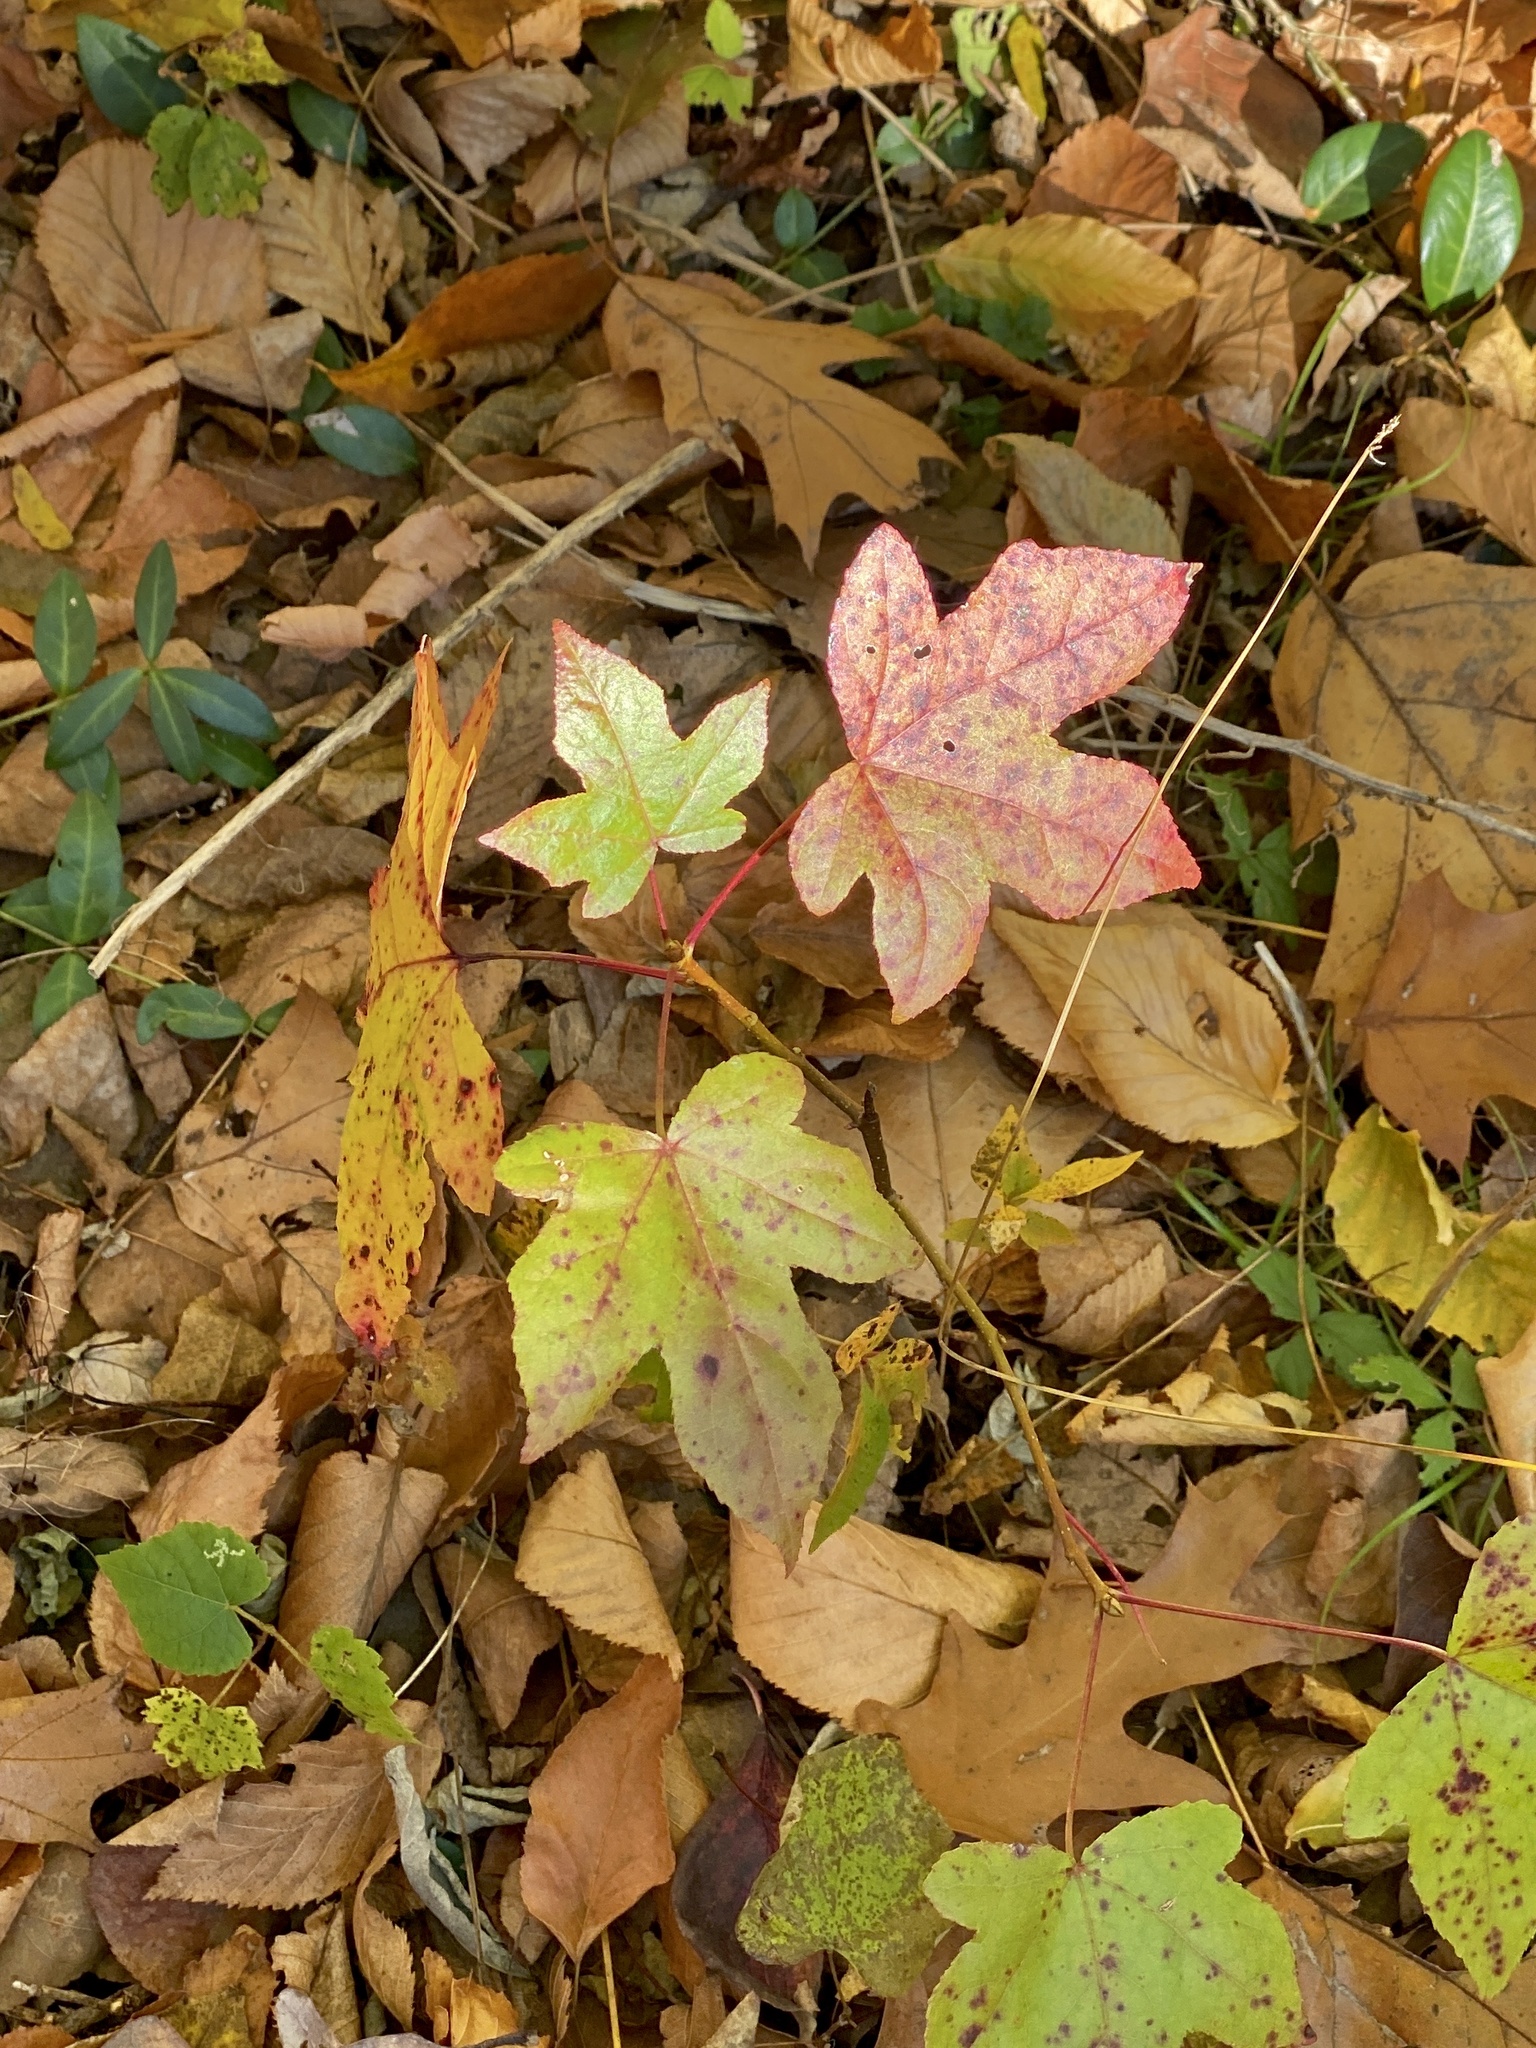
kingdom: Plantae
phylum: Tracheophyta
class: Magnoliopsida
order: Saxifragales
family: Altingiaceae
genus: Liquidambar
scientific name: Liquidambar styraciflua
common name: Sweet gum
